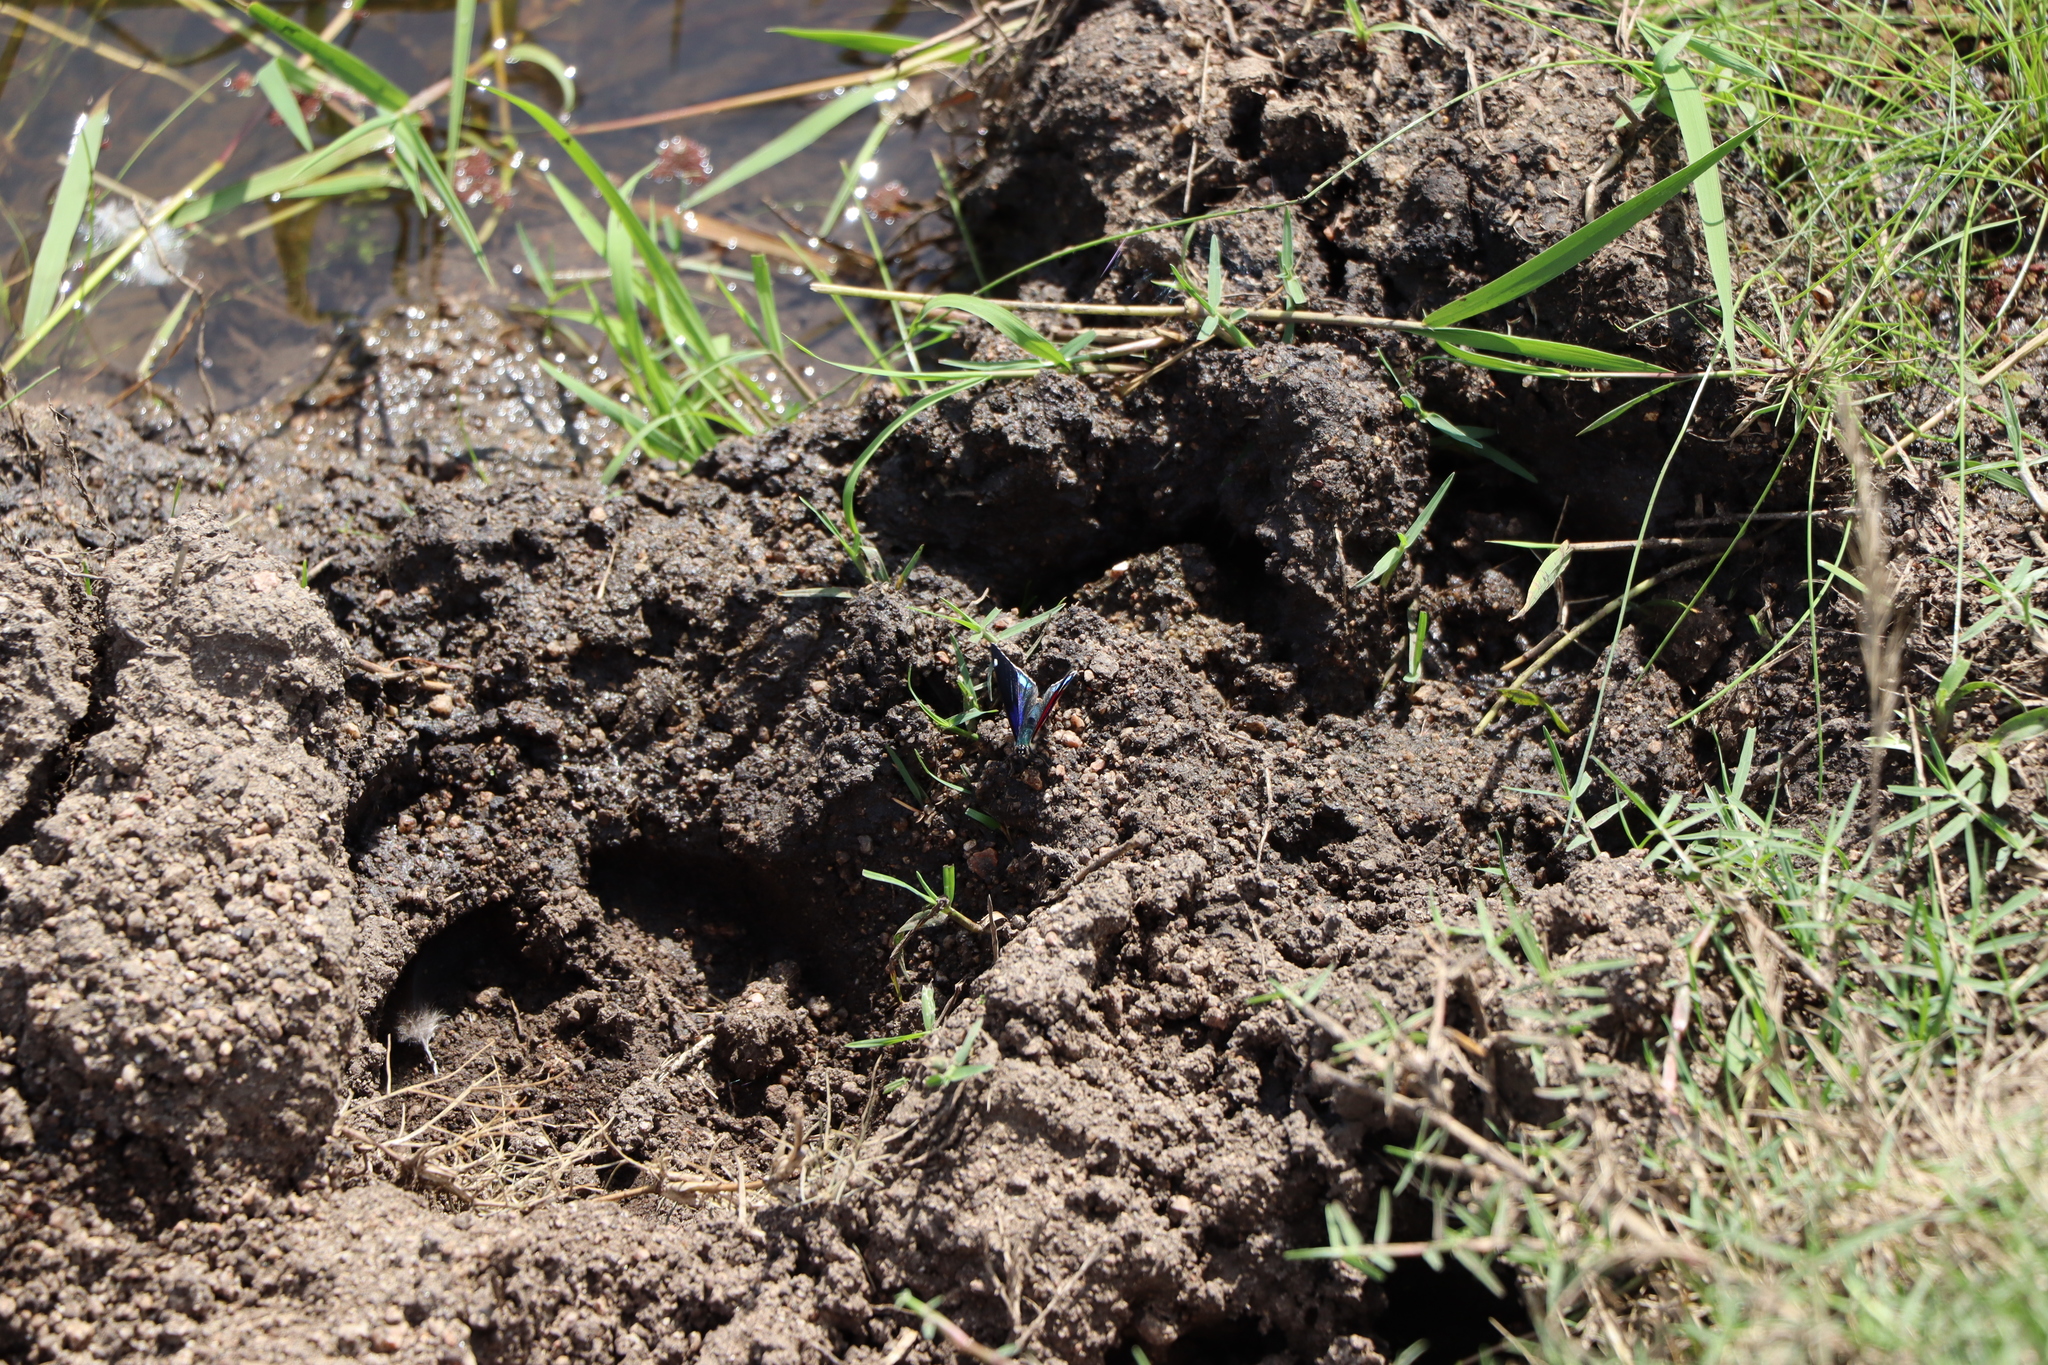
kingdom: Animalia
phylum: Arthropoda
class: Insecta
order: Lepidoptera
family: Nymphalidae
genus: Diaethria
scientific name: Diaethria candrena
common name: Number eighty
